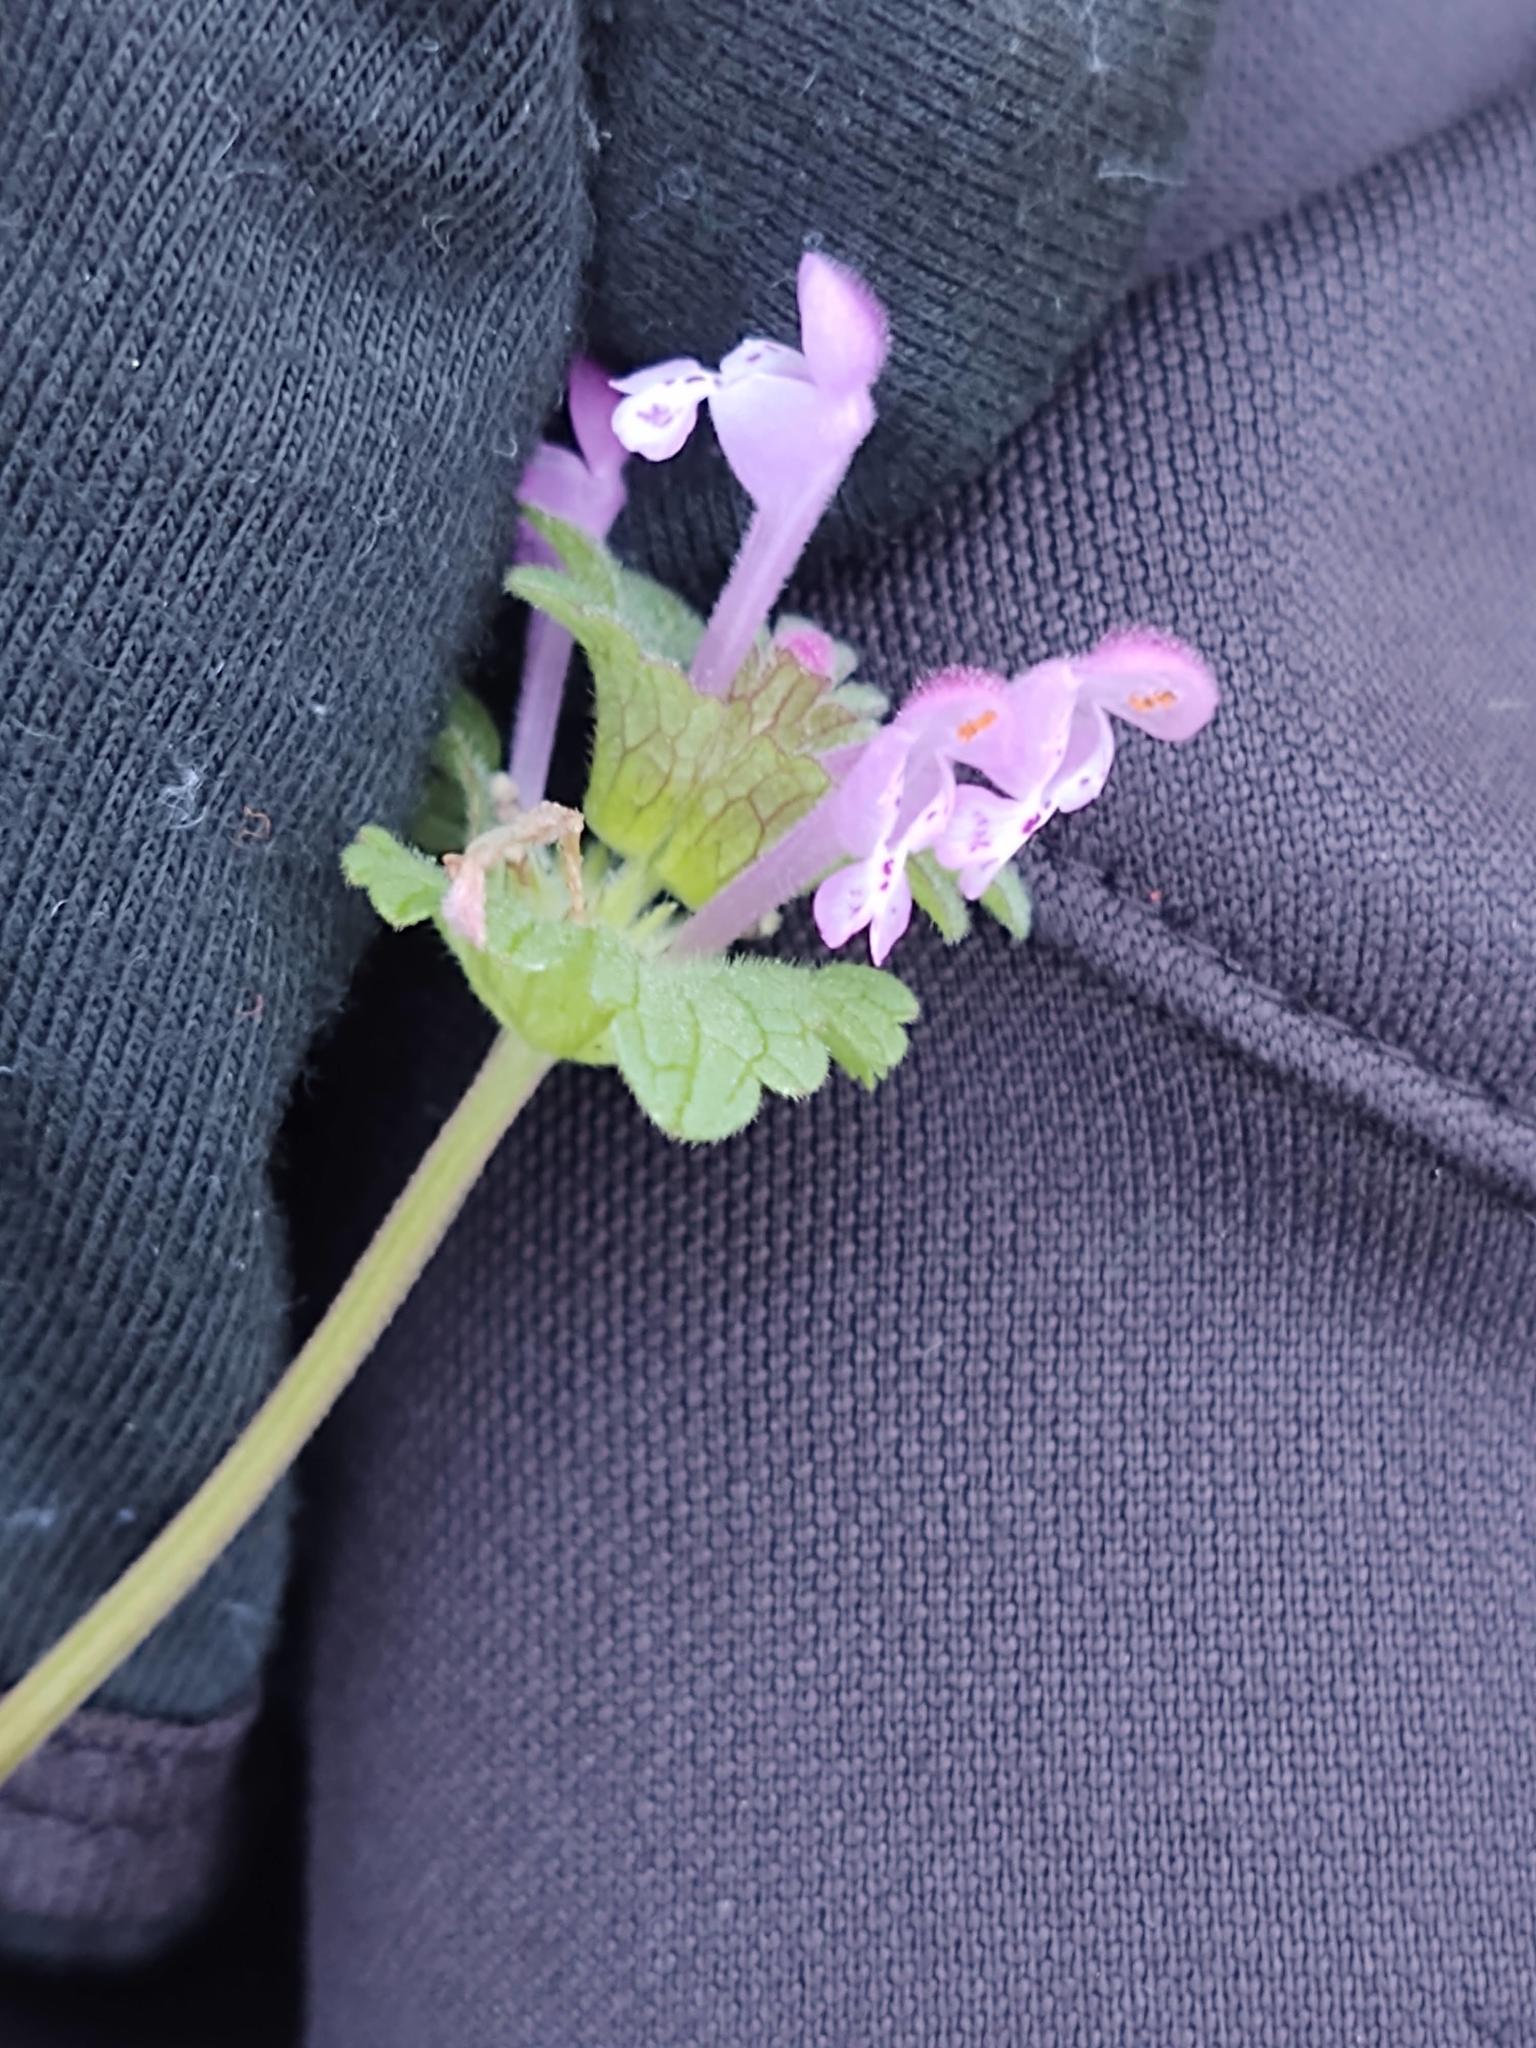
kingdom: Plantae
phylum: Tracheophyta
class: Magnoliopsida
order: Lamiales
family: Lamiaceae
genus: Lamium
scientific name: Lamium amplexicaule
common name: Henbit dead-nettle
